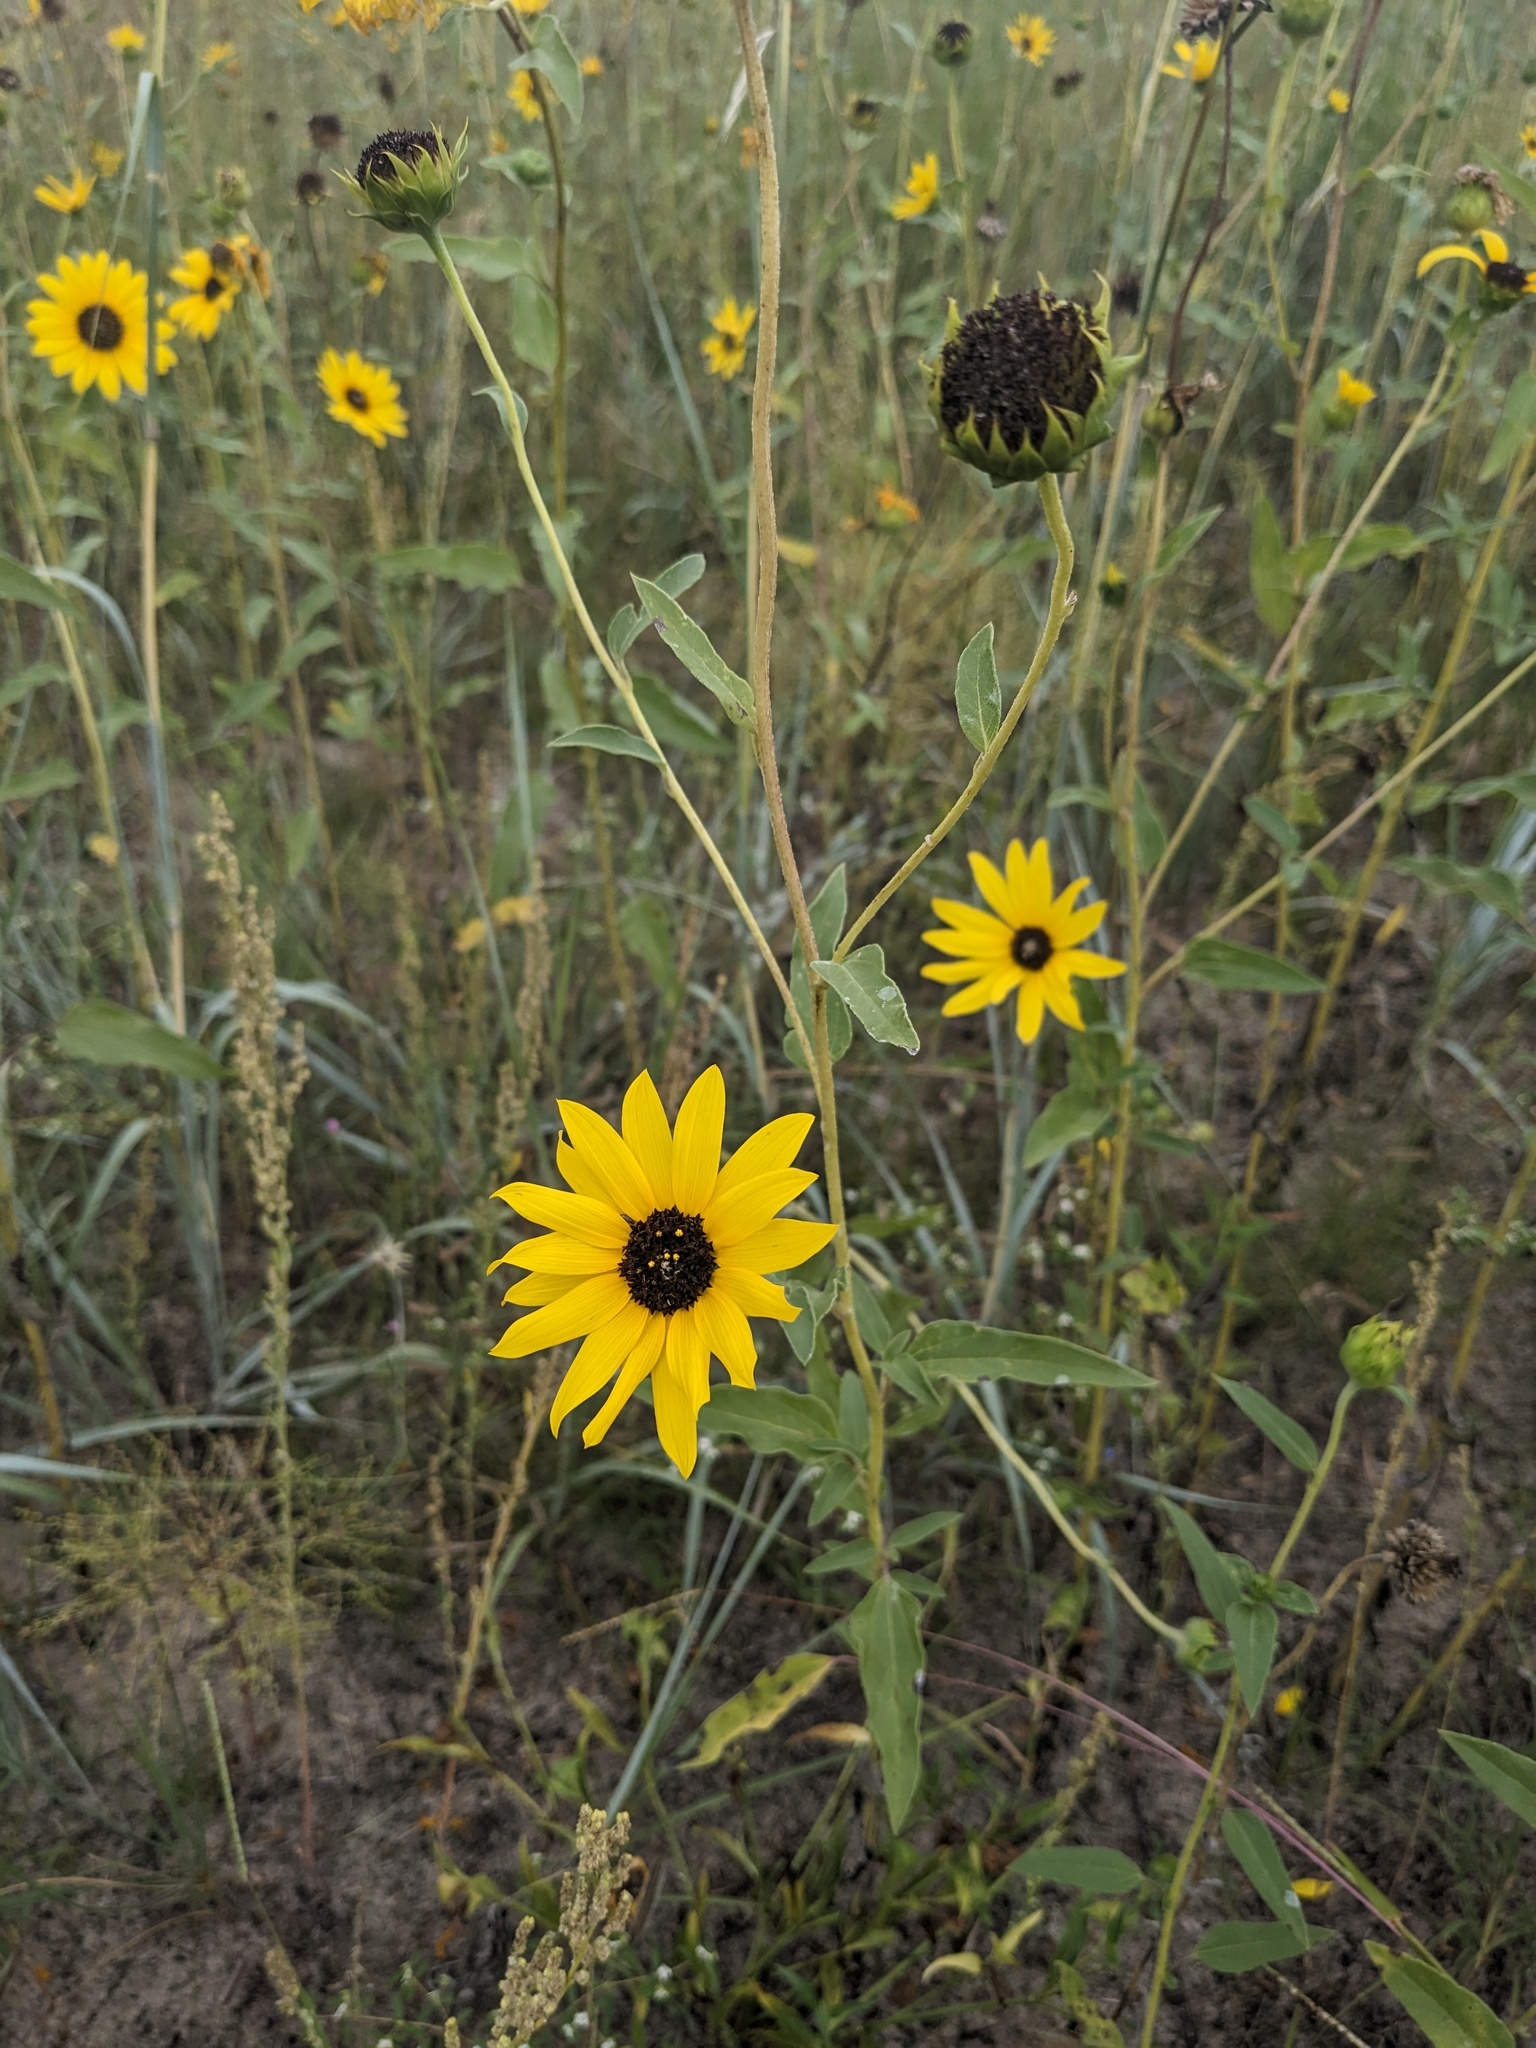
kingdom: Plantae
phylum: Tracheophyta
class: Magnoliopsida
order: Asterales
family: Asteraceae
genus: Helianthus
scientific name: Helianthus petiolaris
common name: Lesser sunflower
